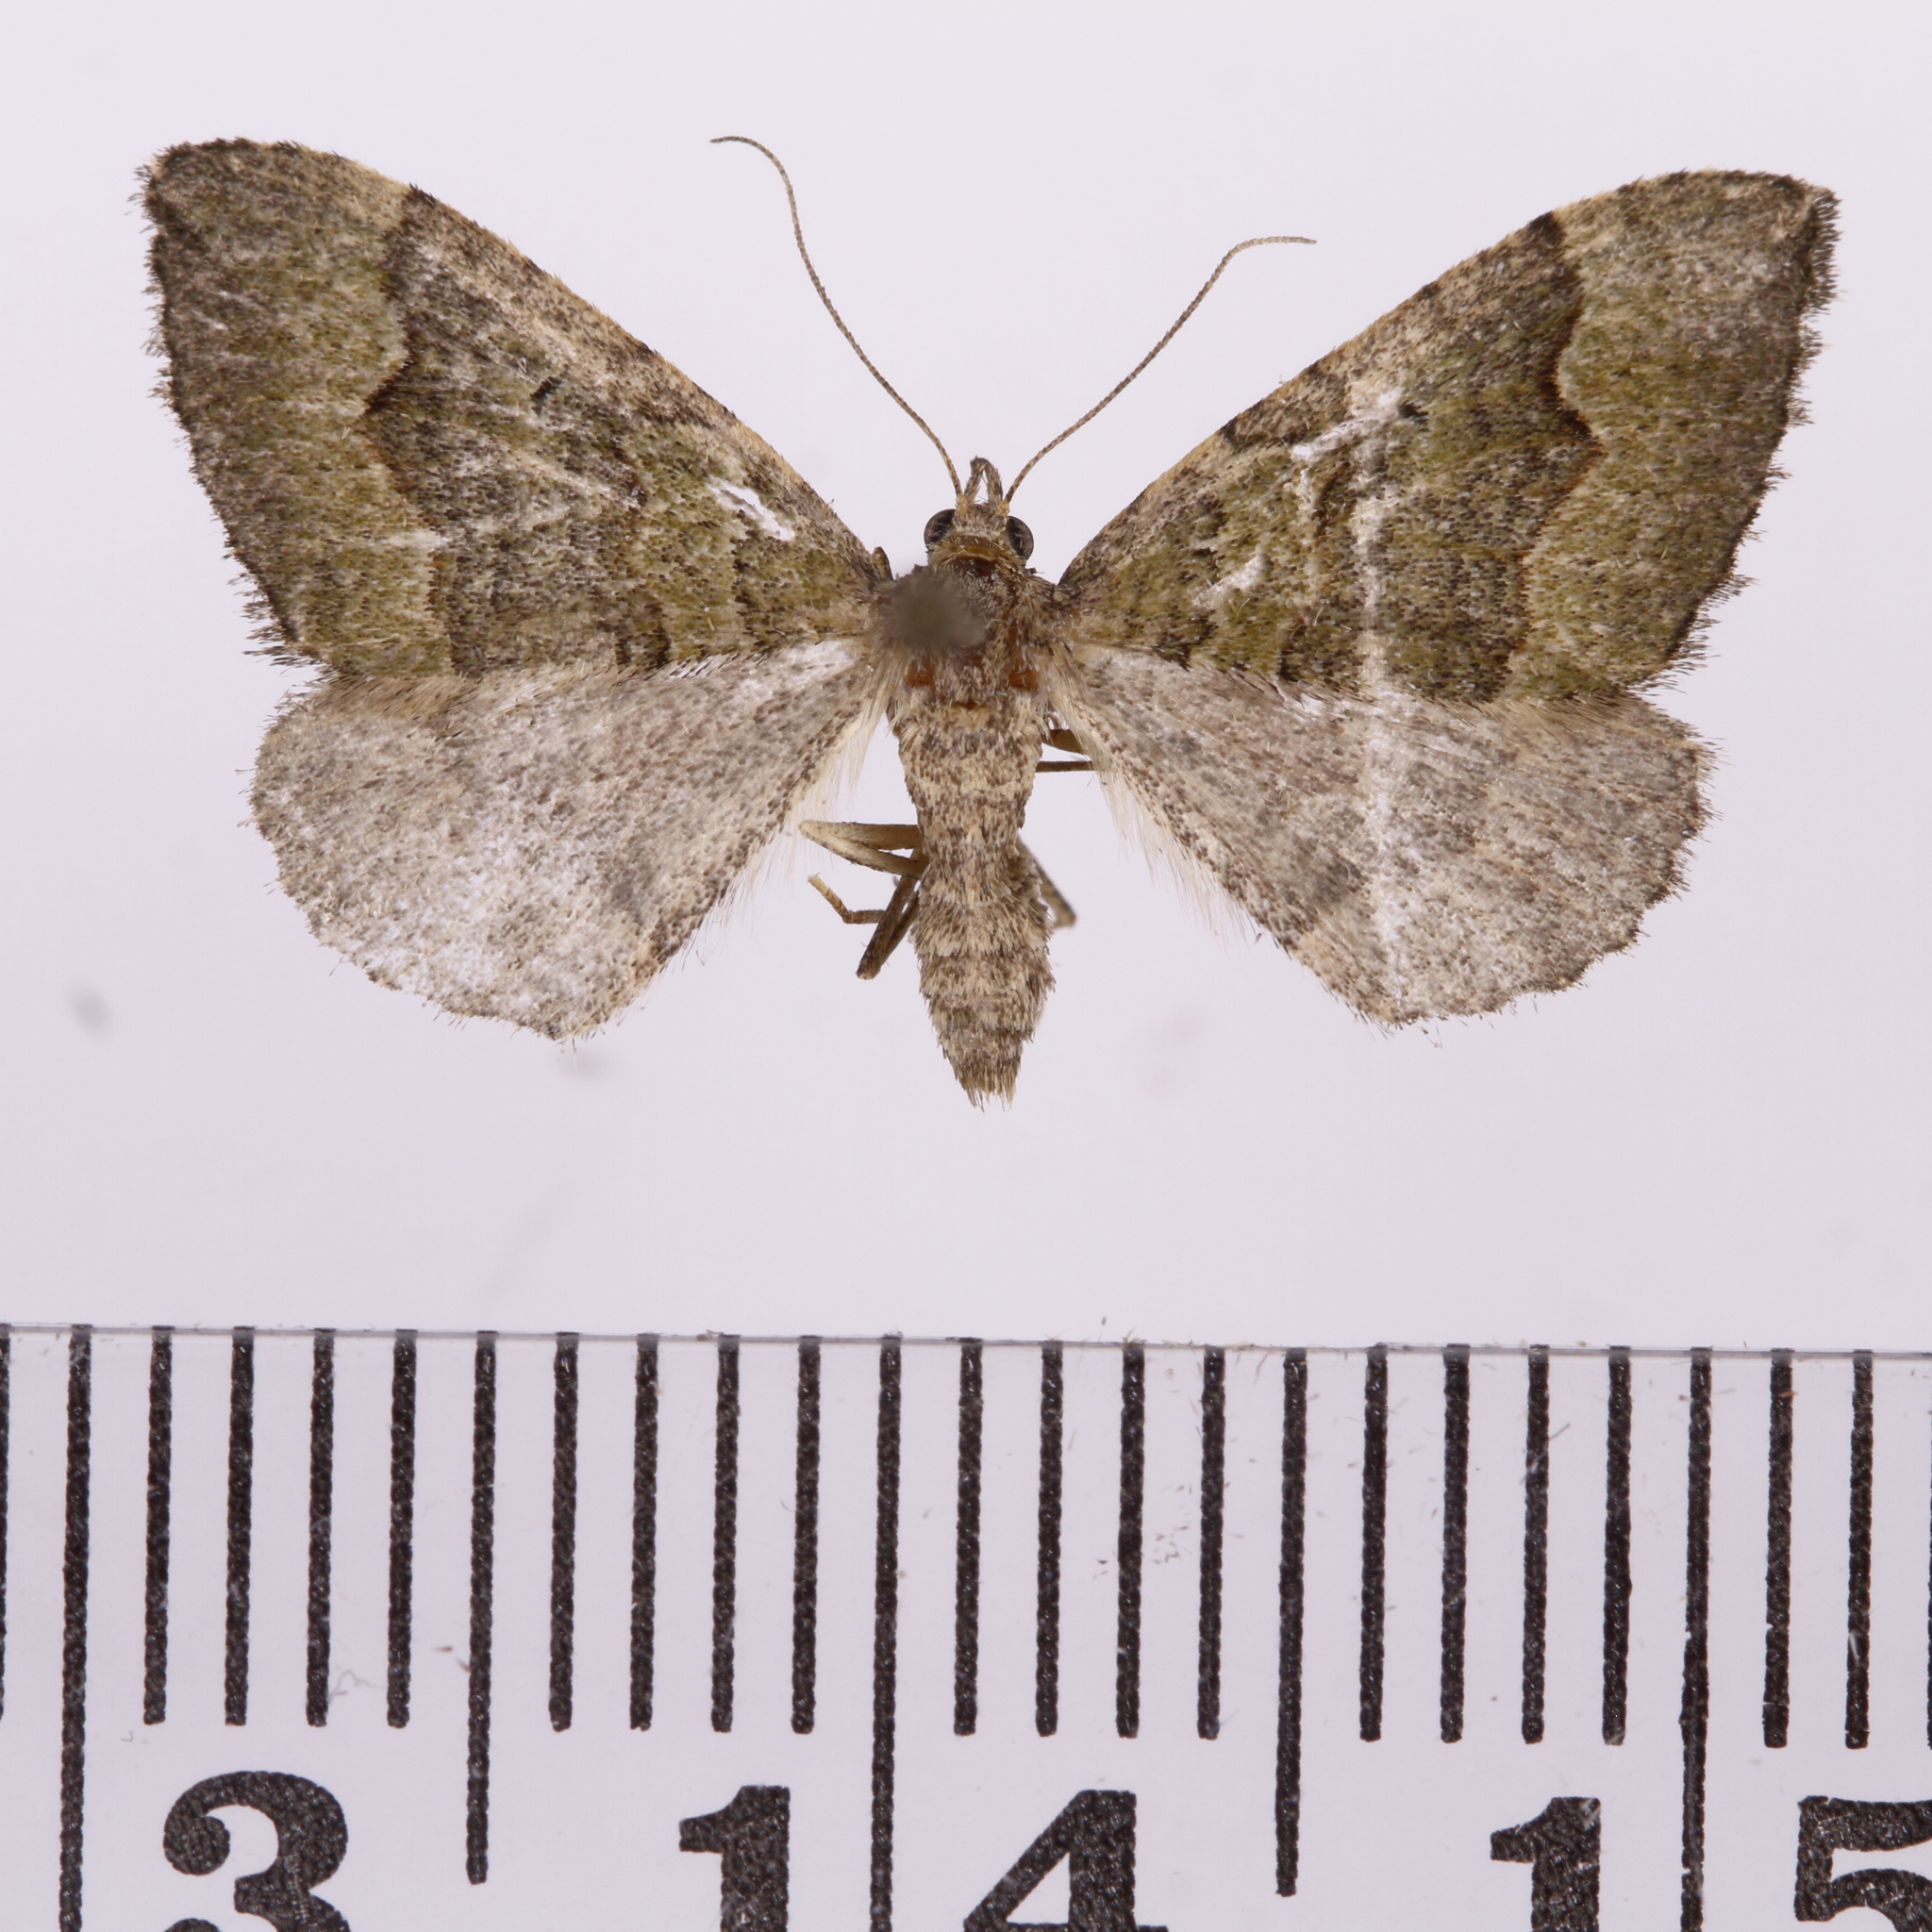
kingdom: Animalia
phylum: Arthropoda
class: Insecta
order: Lepidoptera
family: Geometridae
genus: Epyaxa
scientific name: Epyaxa rosearia
